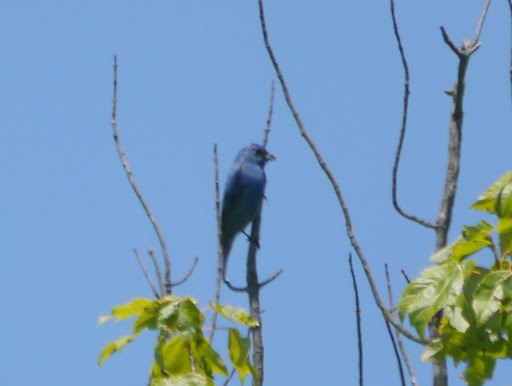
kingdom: Animalia
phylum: Chordata
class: Aves
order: Passeriformes
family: Cardinalidae
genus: Passerina
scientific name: Passerina cyanea
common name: Indigo bunting
